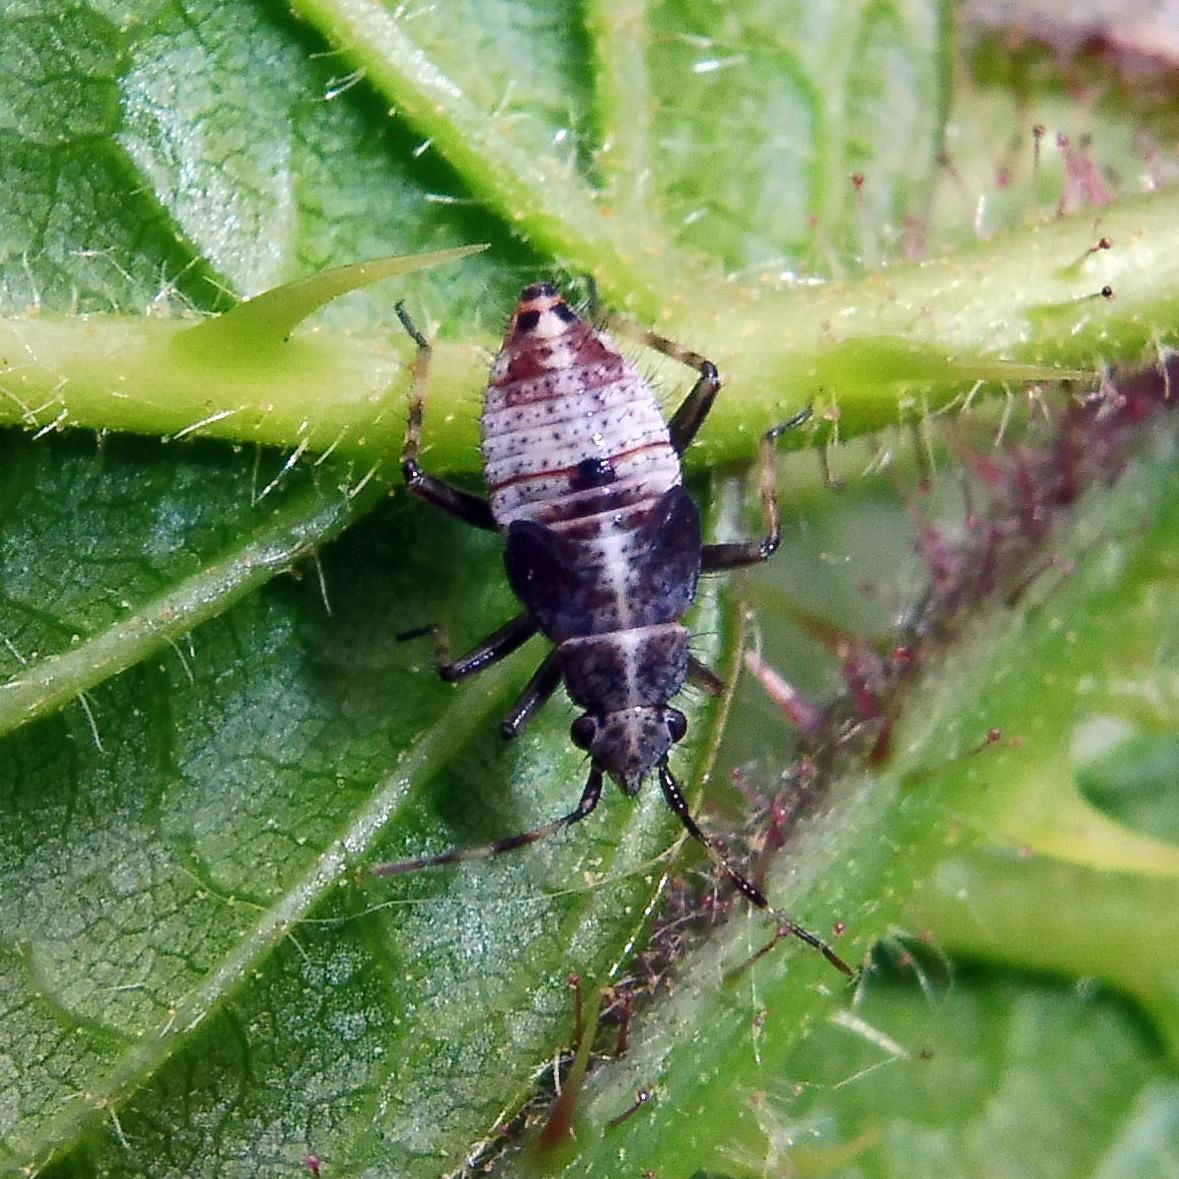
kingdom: Animalia
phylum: Arthropoda
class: Insecta
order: Hemiptera
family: Miridae
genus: Deraeocoris
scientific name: Deraeocoris flavilinea
